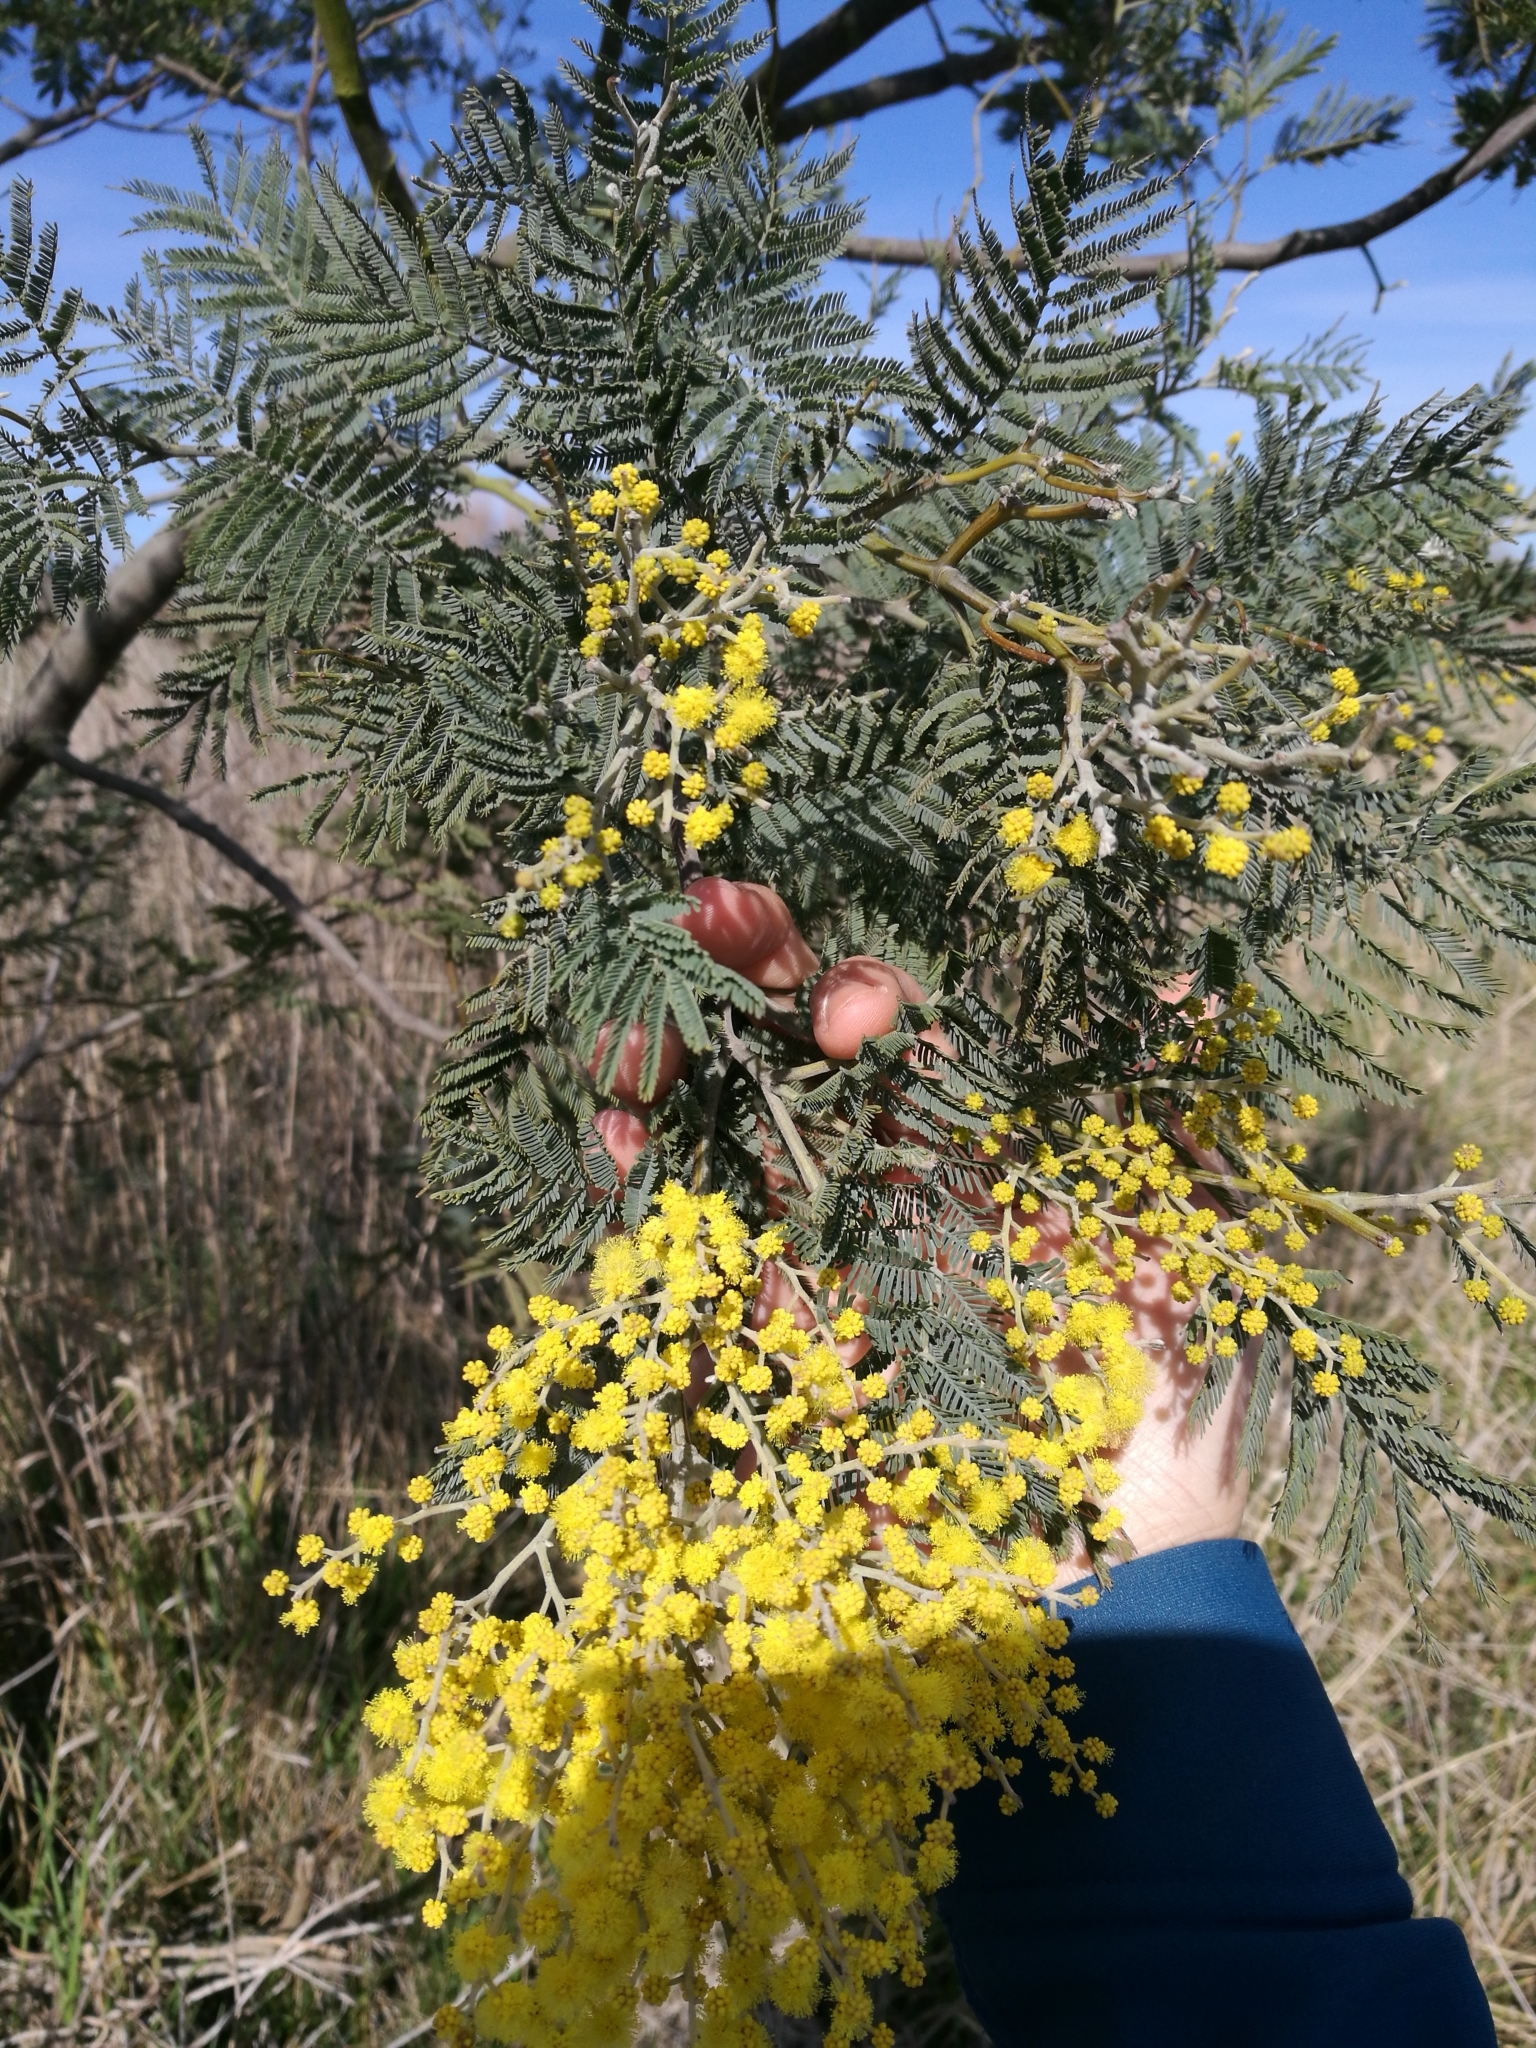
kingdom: Plantae
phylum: Tracheophyta
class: Magnoliopsida
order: Fabales
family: Fabaceae
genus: Acacia
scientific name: Acacia dealbata
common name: Silver wattle
